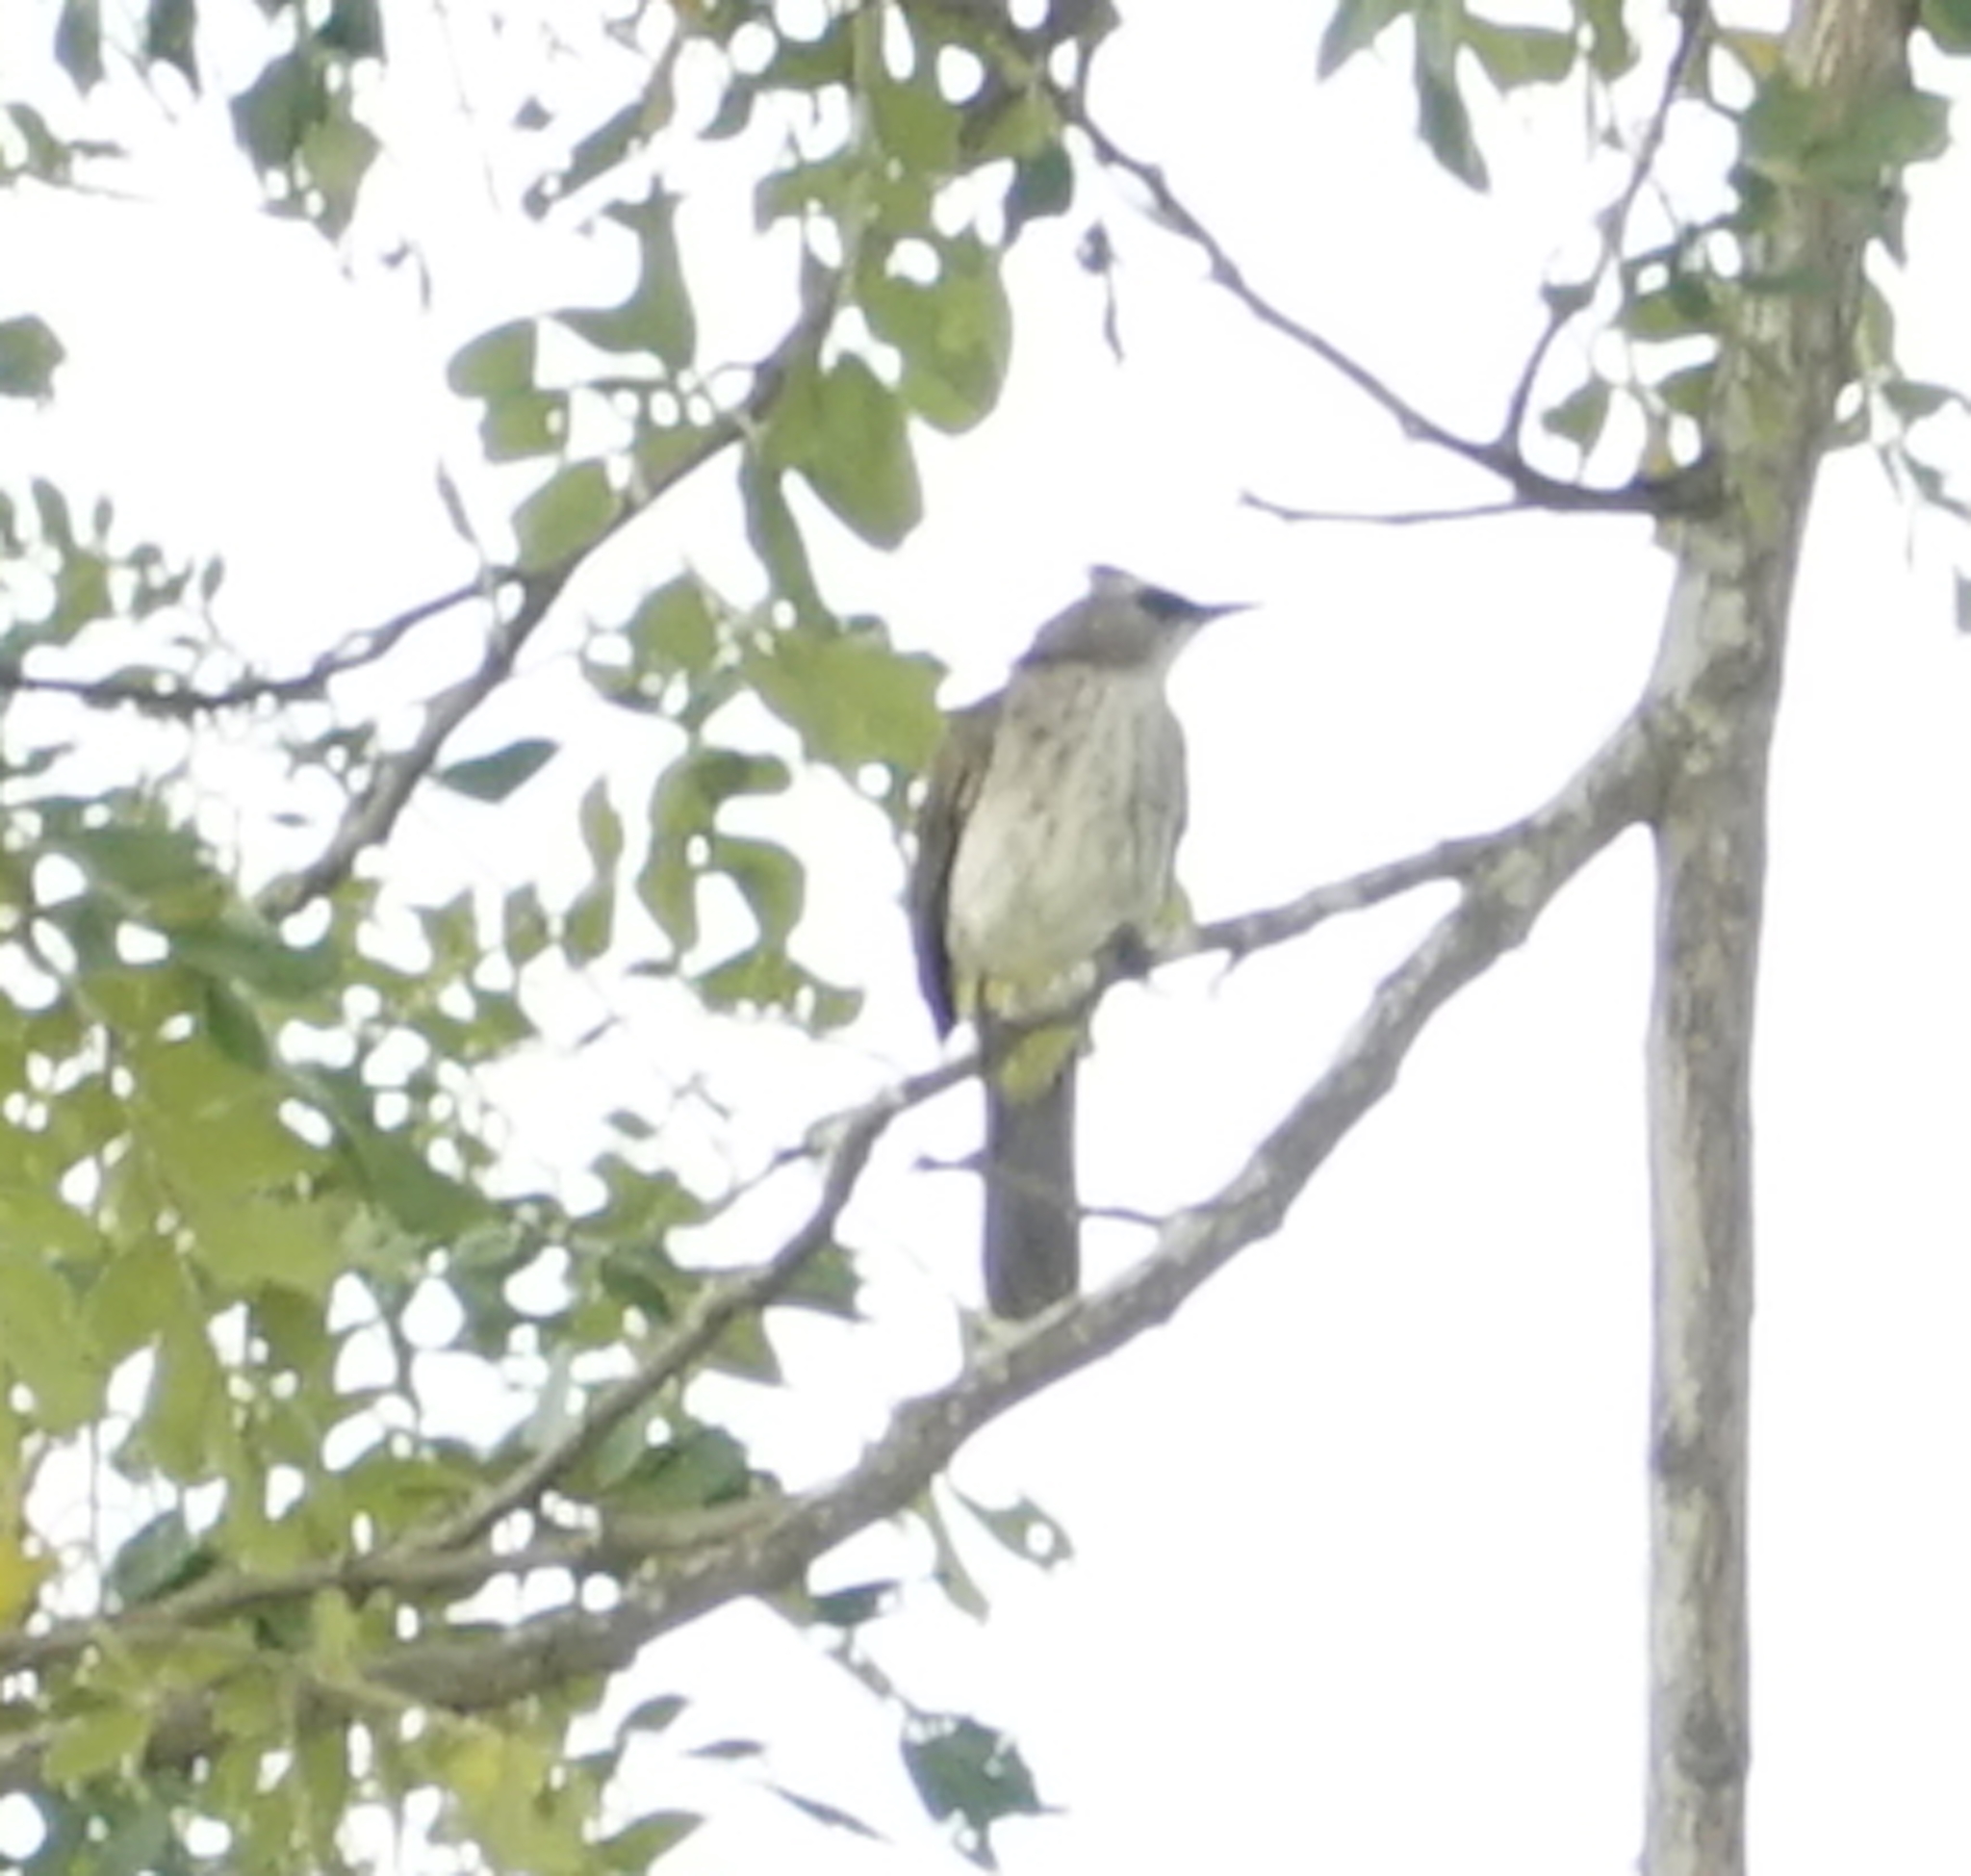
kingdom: Animalia
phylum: Chordata
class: Aves
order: Passeriformes
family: Pycnonotidae
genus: Pycnonotus
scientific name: Pycnonotus goiavier
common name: Yellow-vented bulbul
